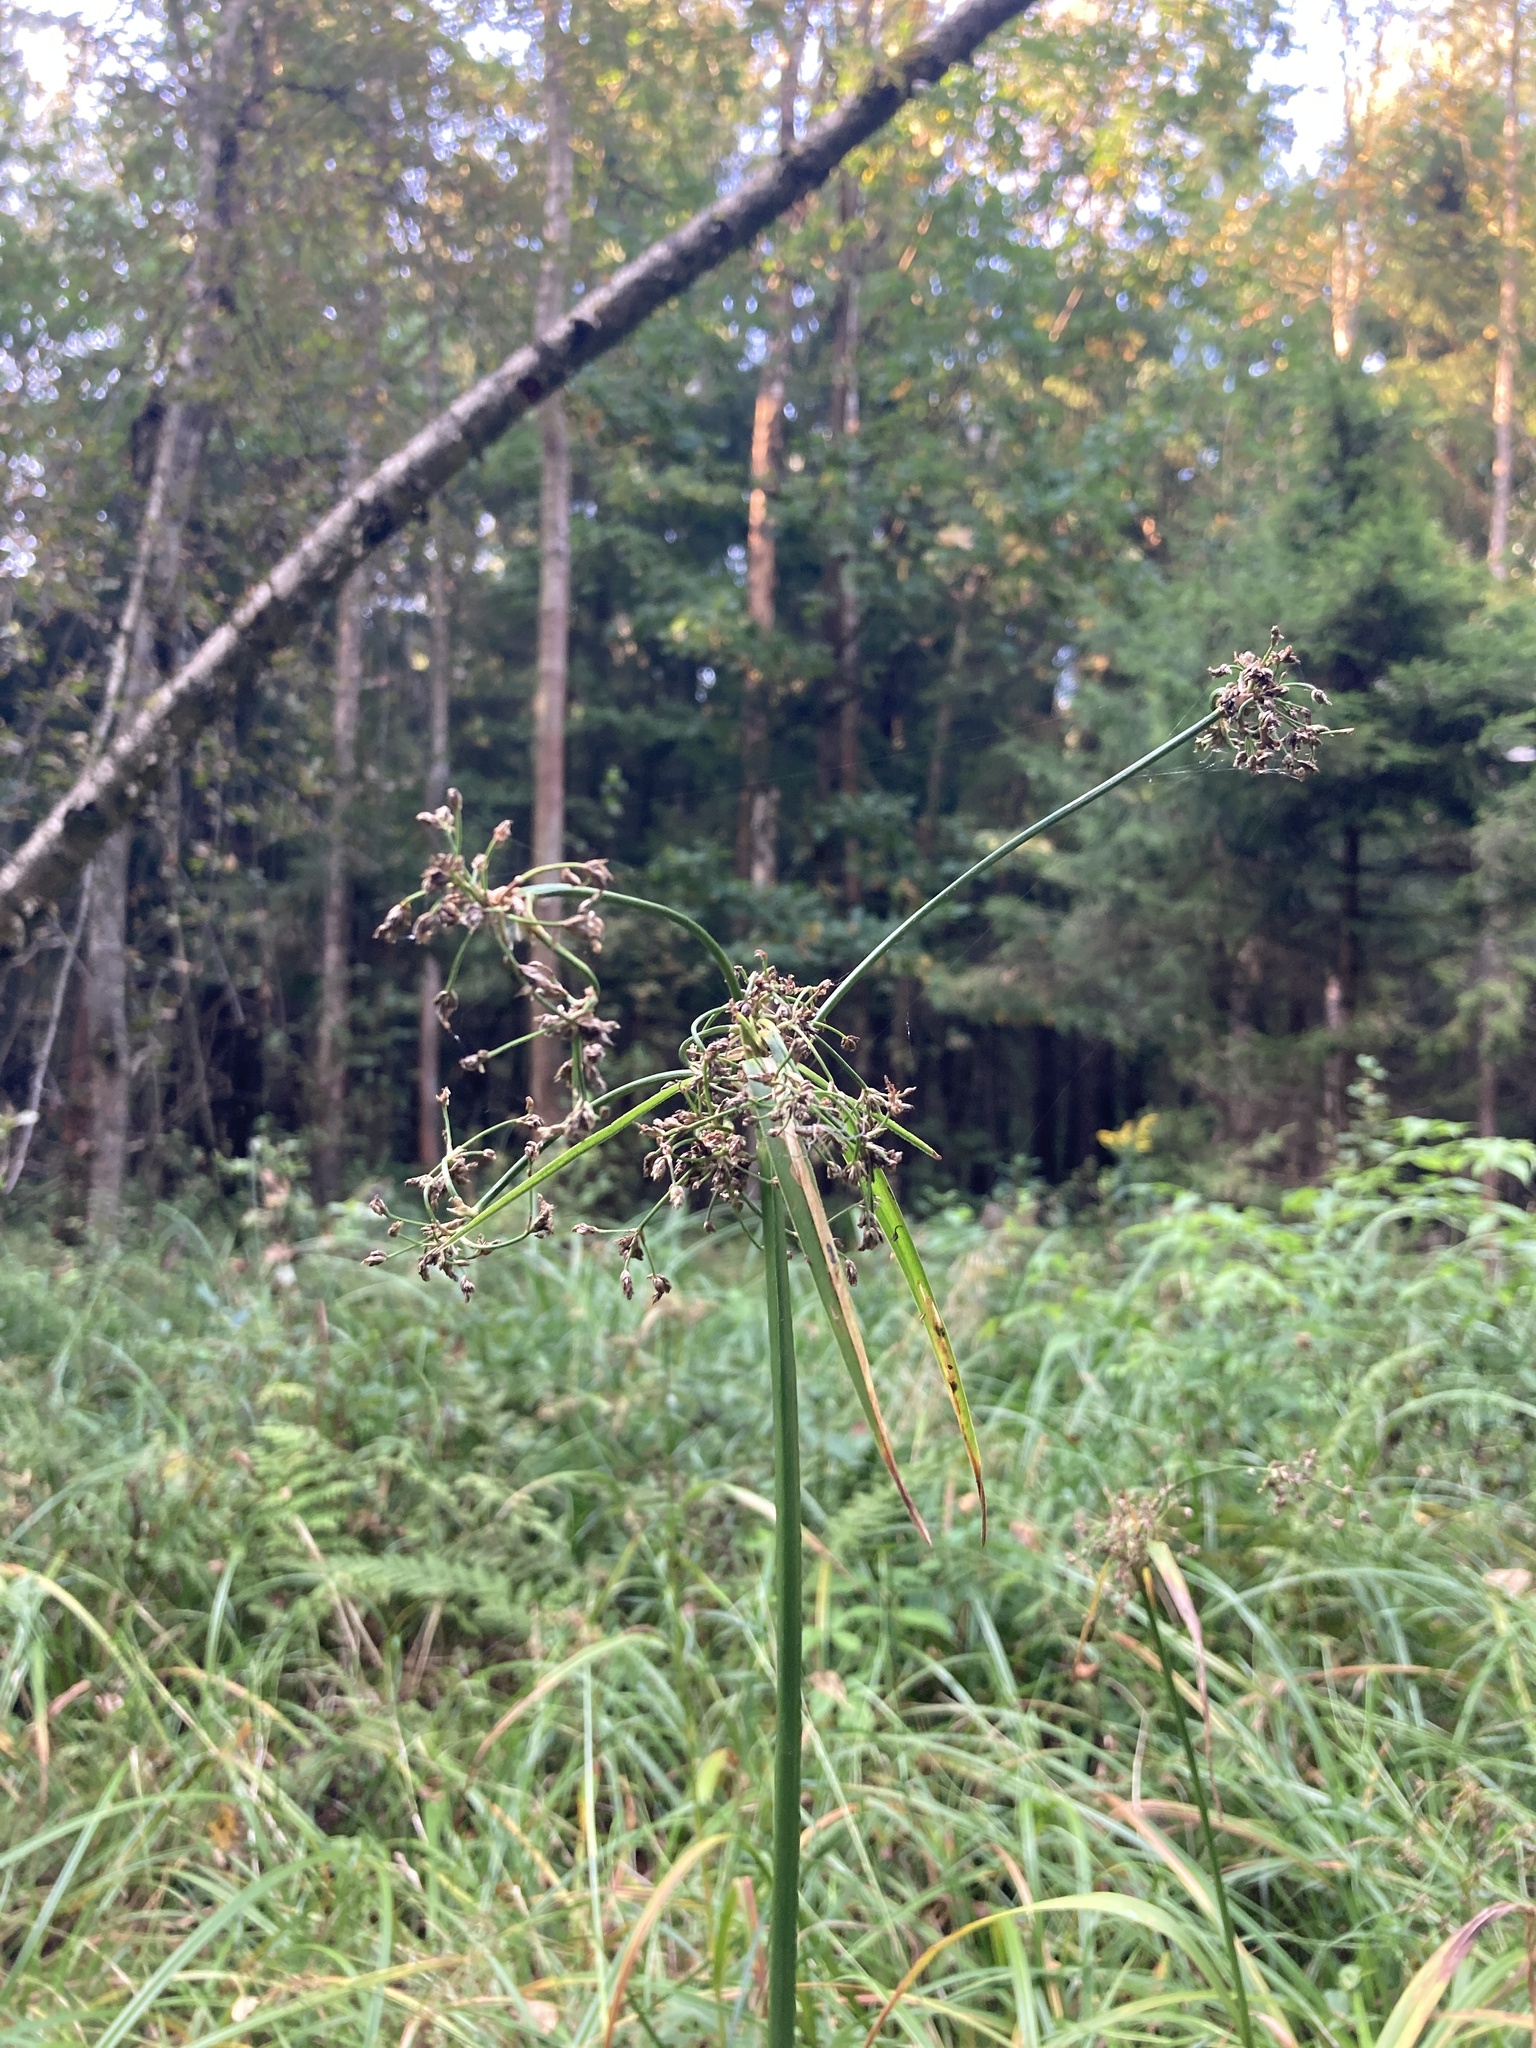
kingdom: Plantae
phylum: Tracheophyta
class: Liliopsida
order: Poales
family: Cyperaceae
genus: Scirpus
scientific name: Scirpus sylvaticus
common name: Wood club-rush
